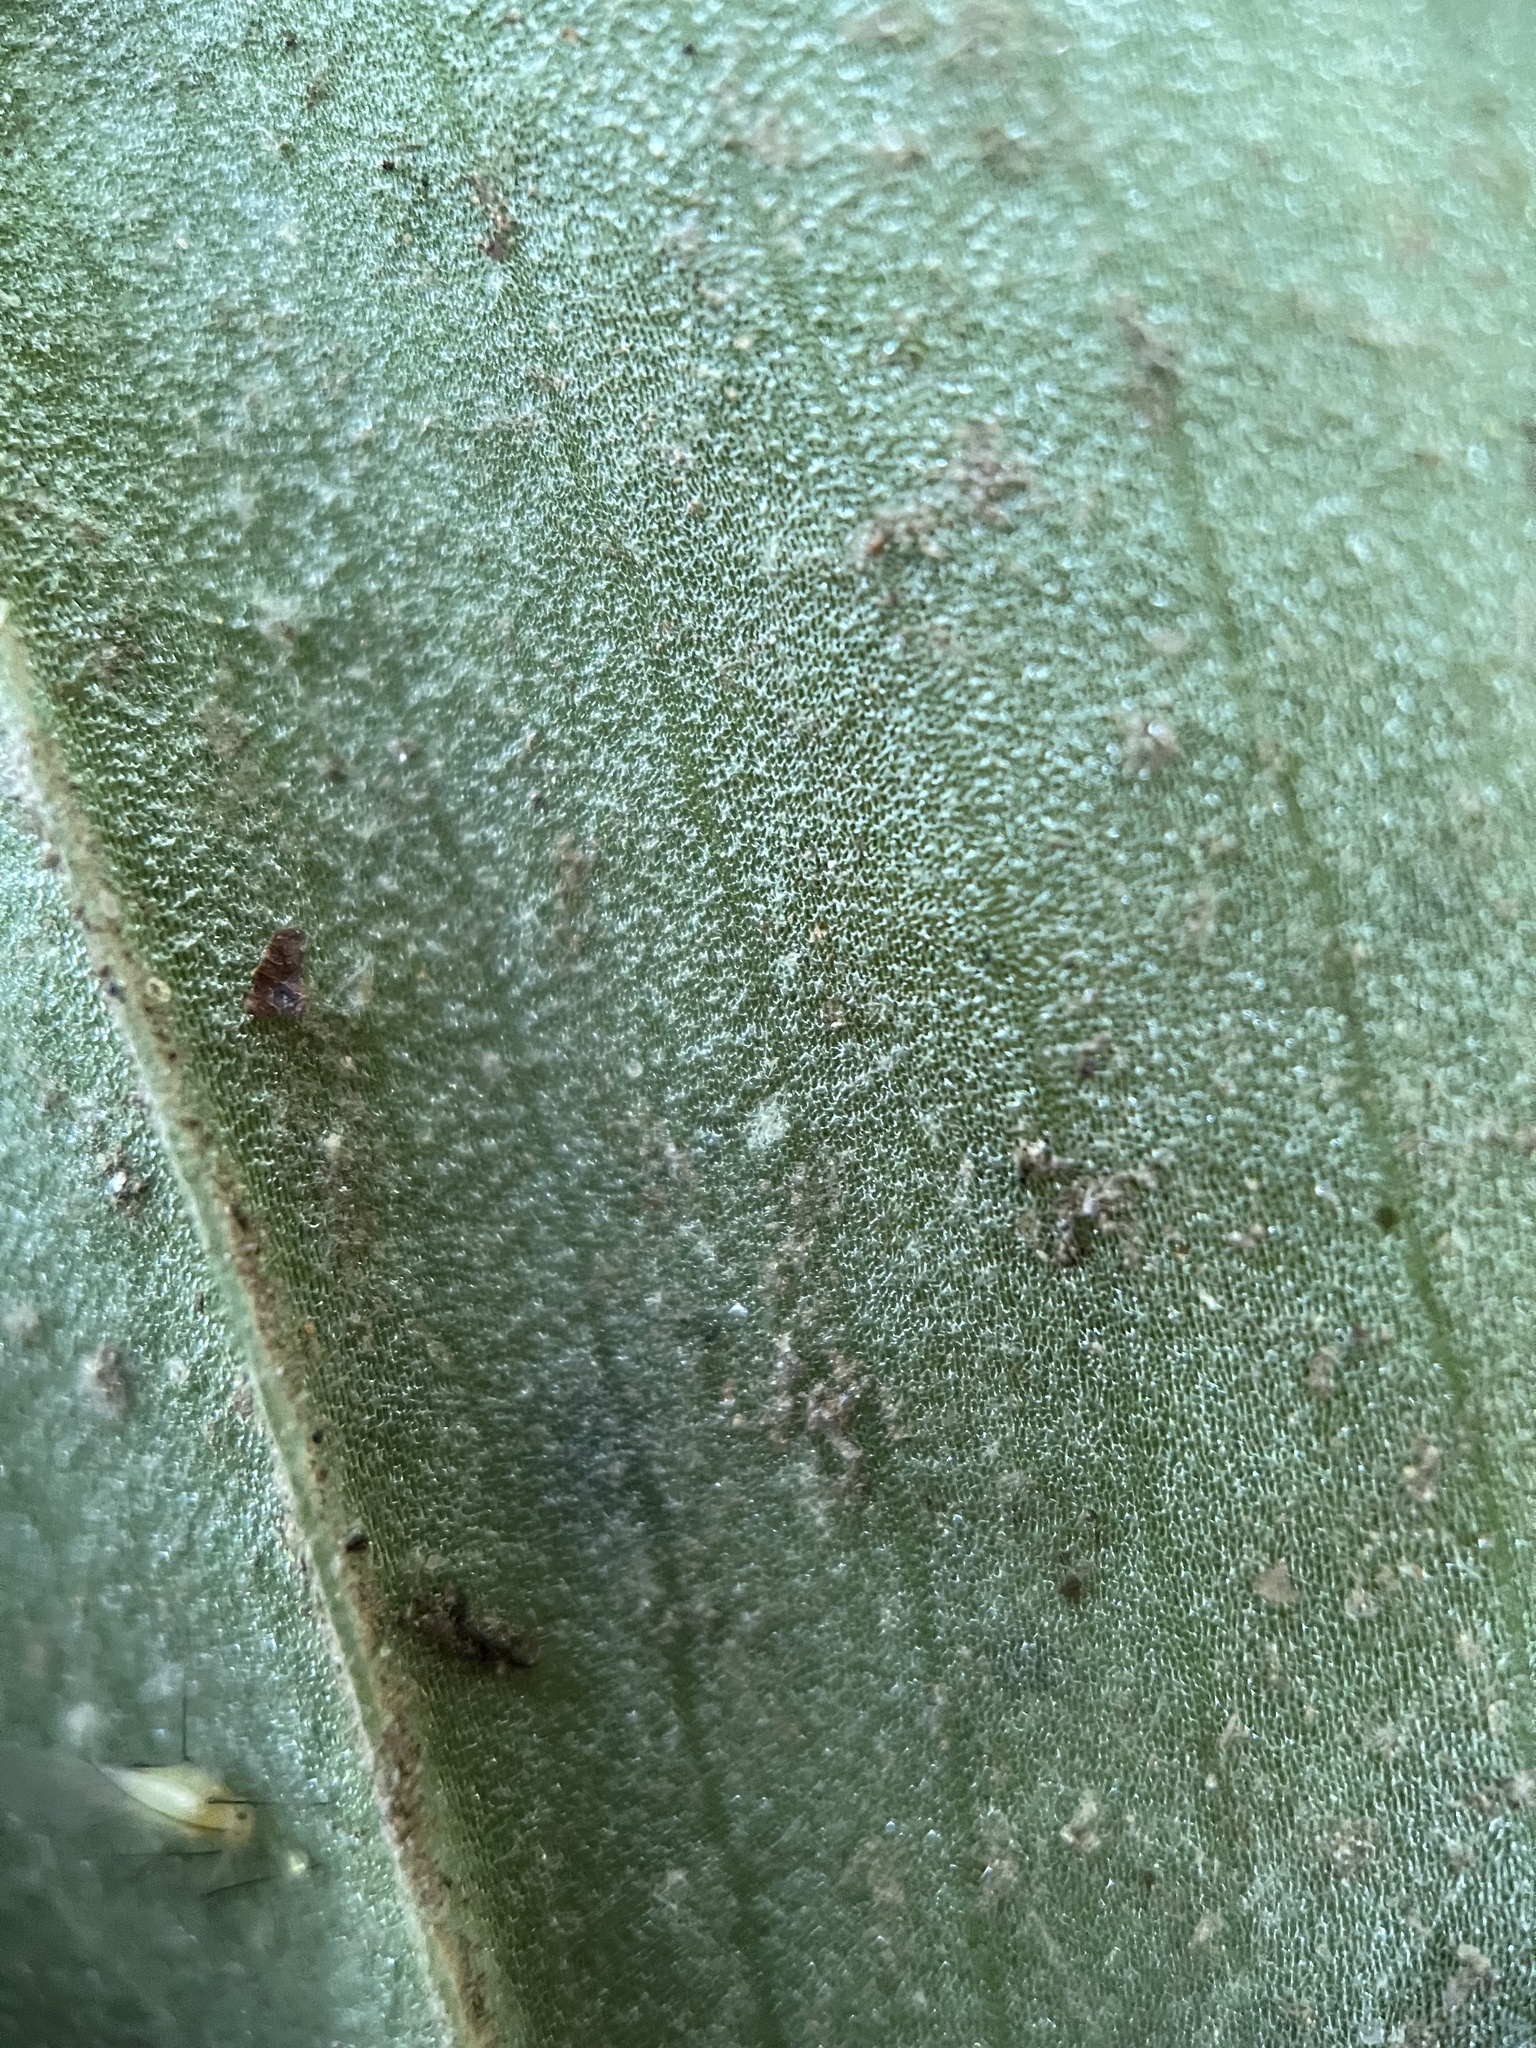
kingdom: Plantae
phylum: Tracheophyta
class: Liliopsida
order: Asparagales
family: Orchidaceae
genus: Galearis
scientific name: Galearis spectabilis
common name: Purple-hooded orchis
